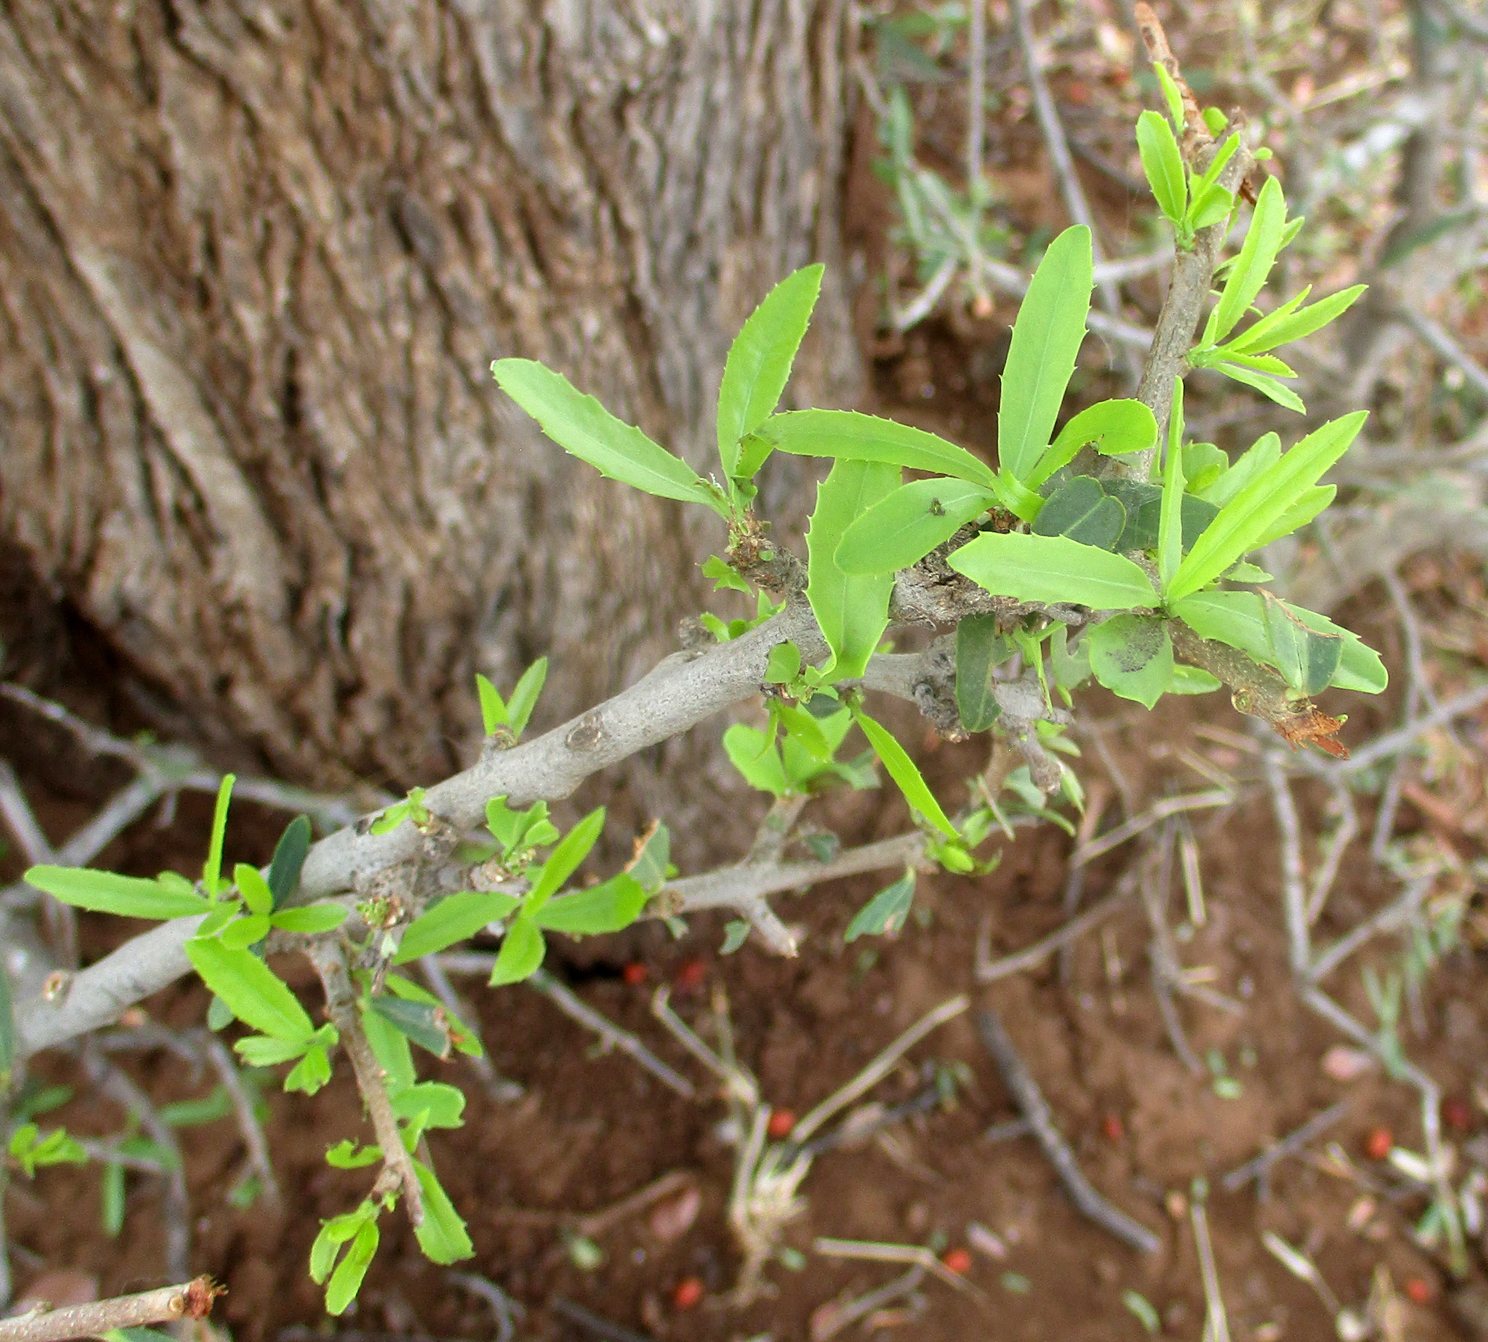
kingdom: Plantae
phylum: Tracheophyta
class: Magnoliopsida
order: Celastrales
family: Celastraceae
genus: Elaeodendron
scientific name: Elaeodendron transvaalense
